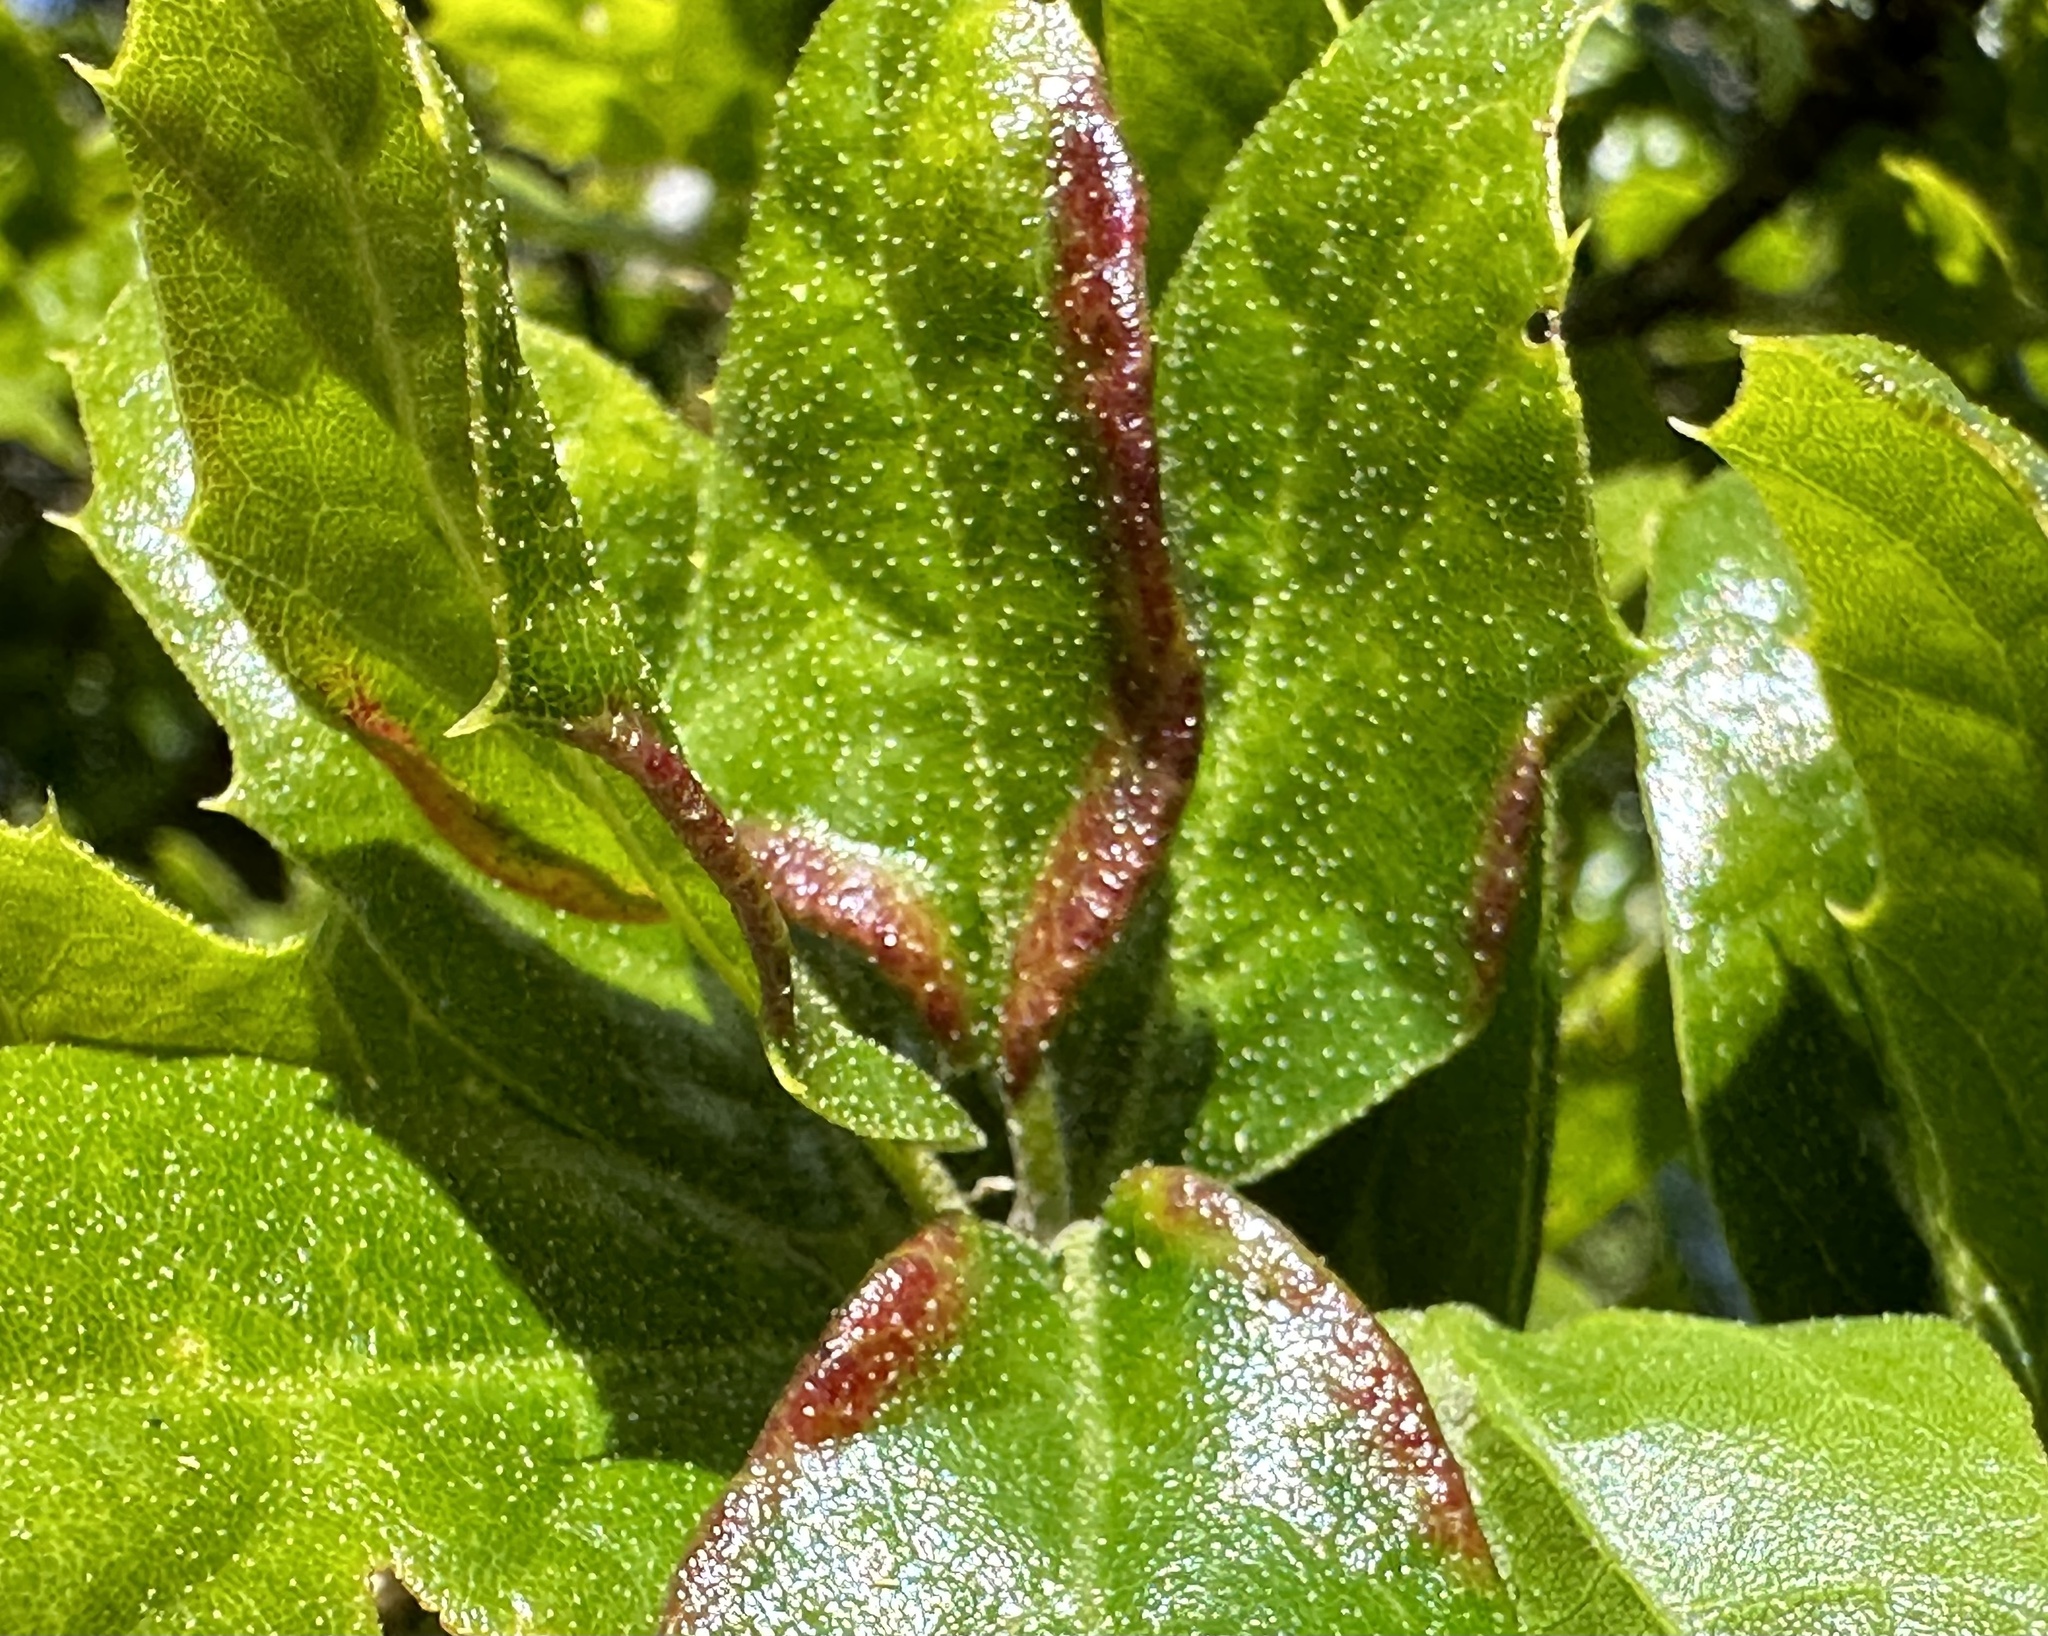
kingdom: Animalia
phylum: Arthropoda
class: Insecta
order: Hemiptera
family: Aphididae
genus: Stegophylla
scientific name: Stegophylla essigi
